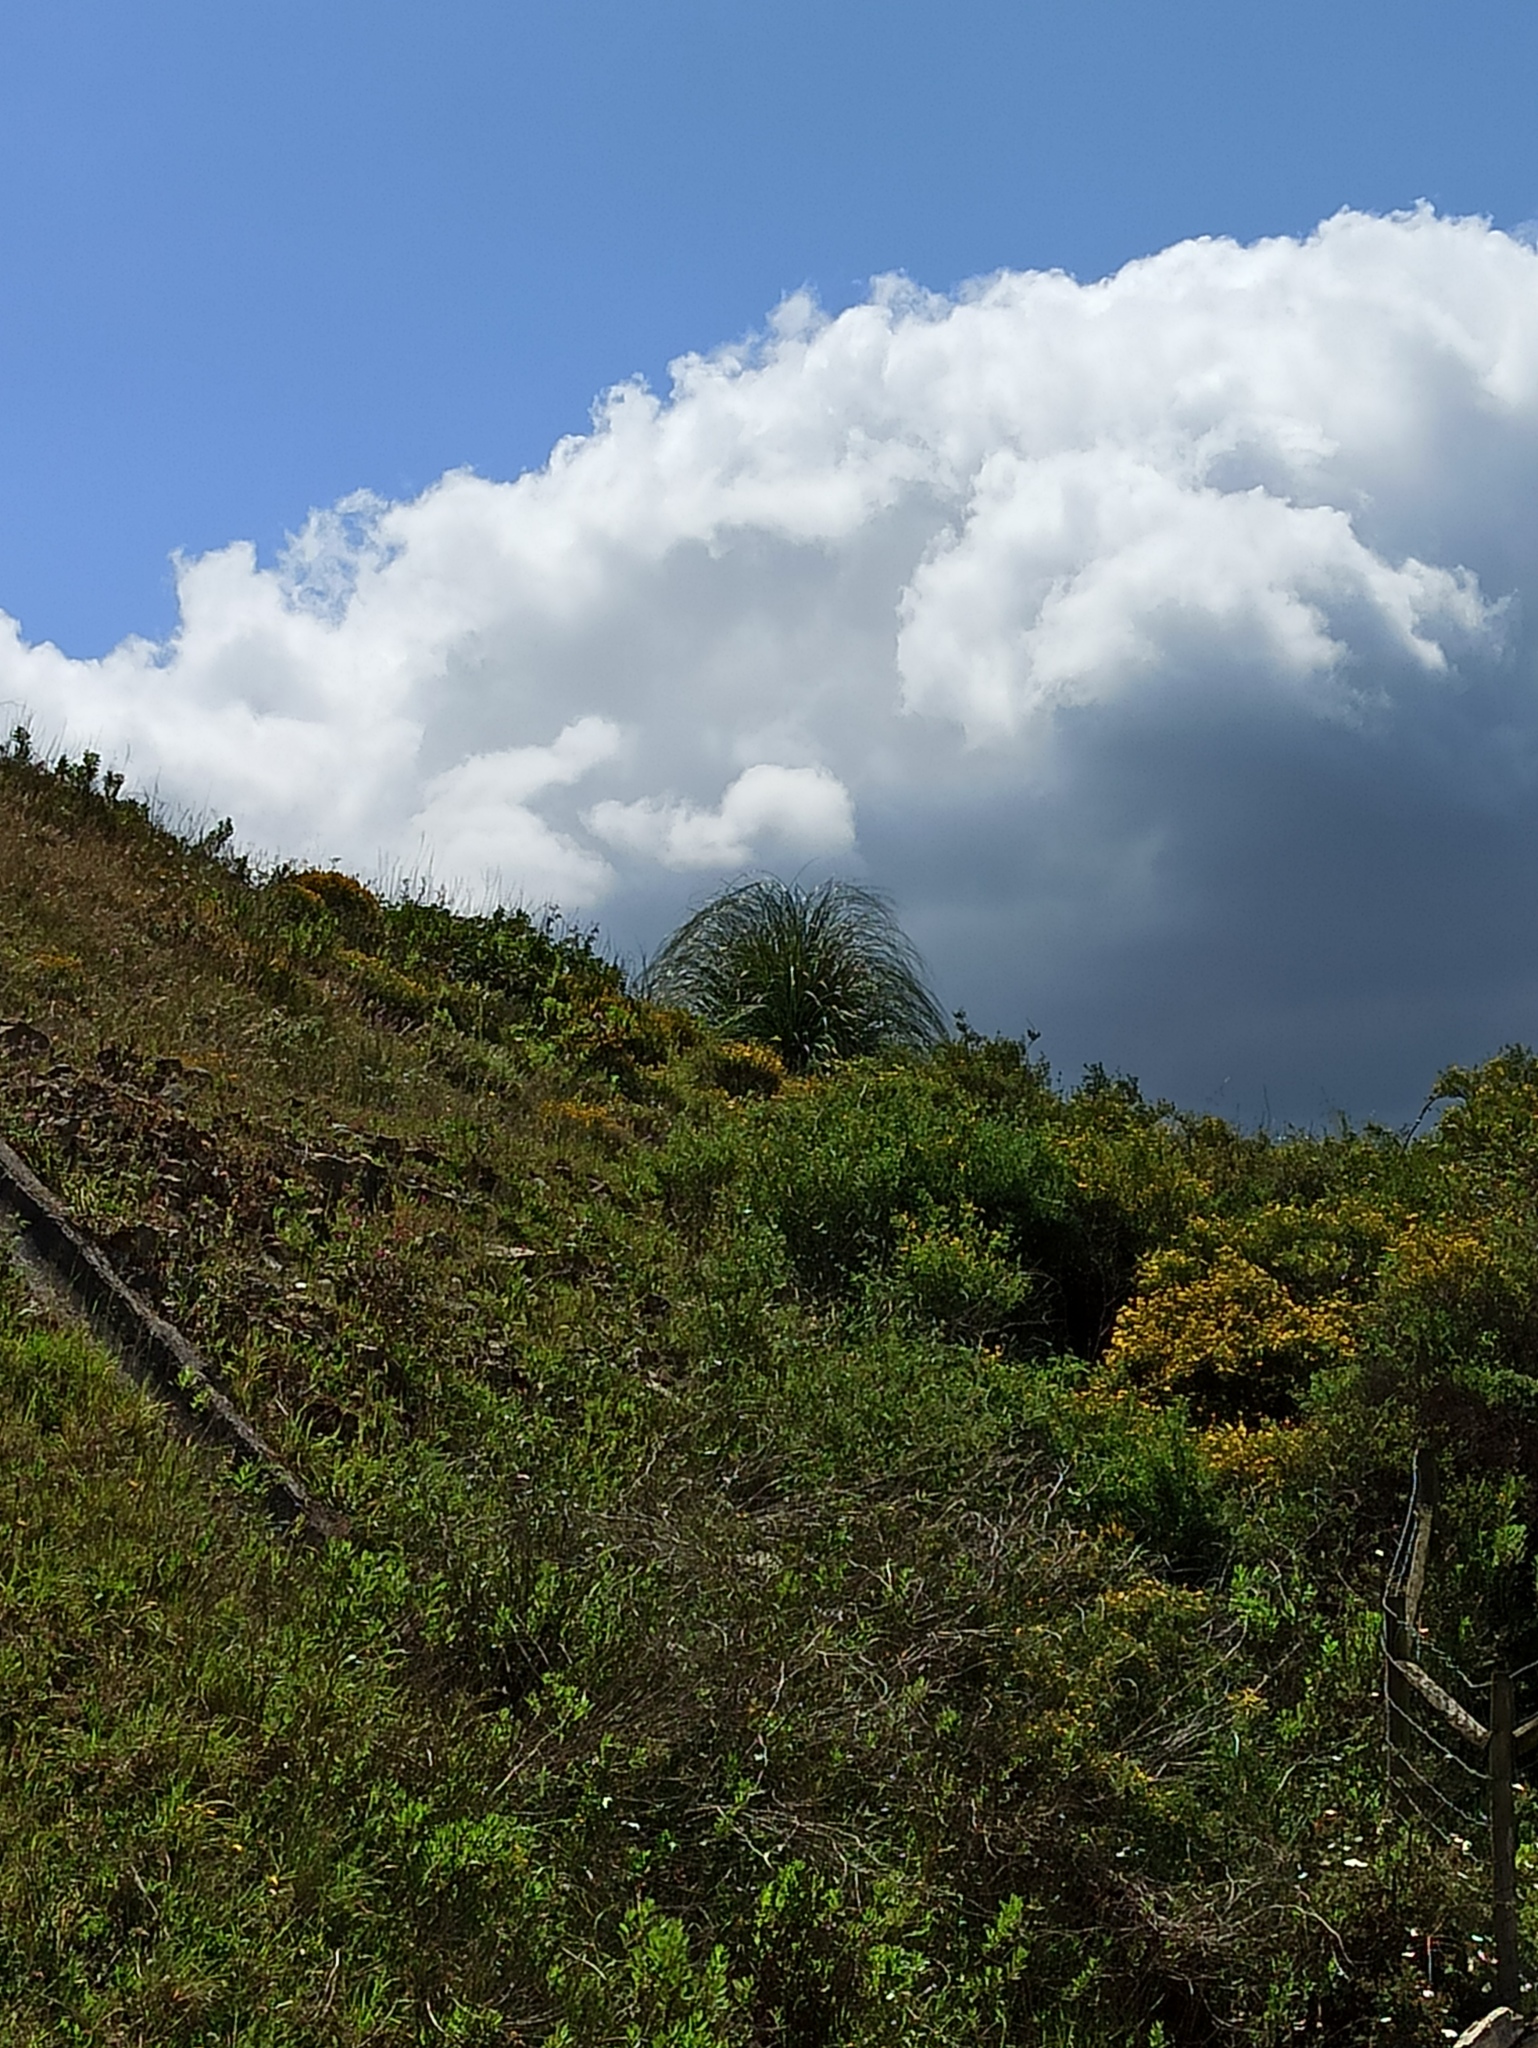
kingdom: Plantae
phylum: Tracheophyta
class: Liliopsida
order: Poales
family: Poaceae
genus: Cortaderia
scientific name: Cortaderia selloana
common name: Uruguayan pampas grass
